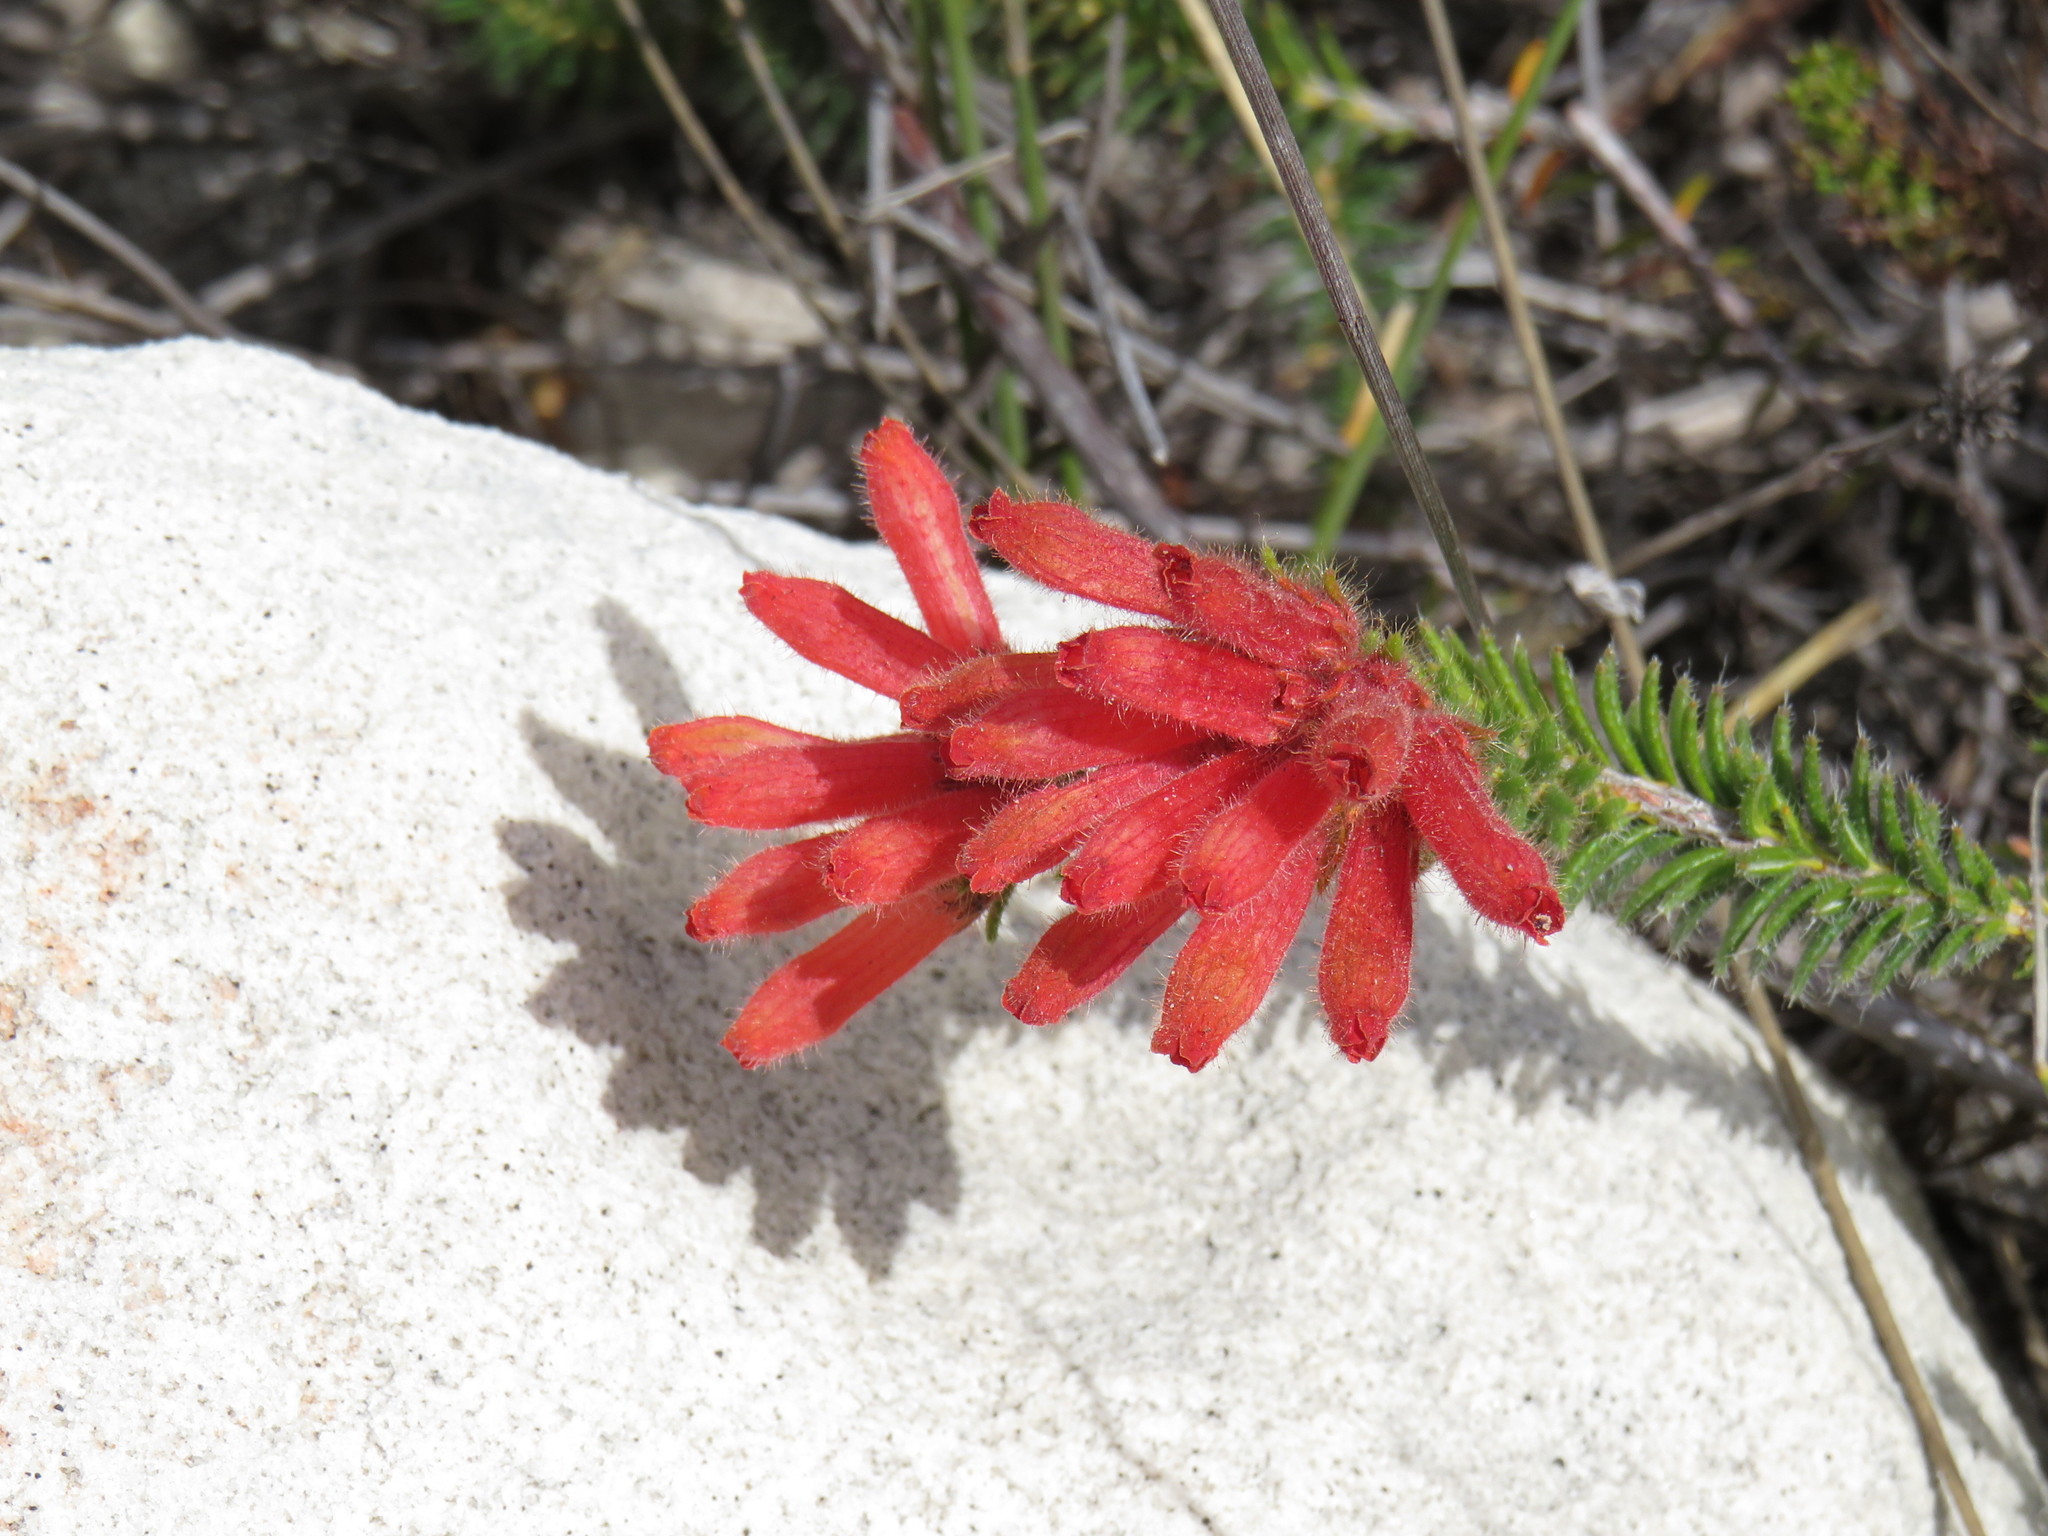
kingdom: Plantae
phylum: Tracheophyta
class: Magnoliopsida
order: Ericales
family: Ericaceae
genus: Erica
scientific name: Erica cerinthoides
